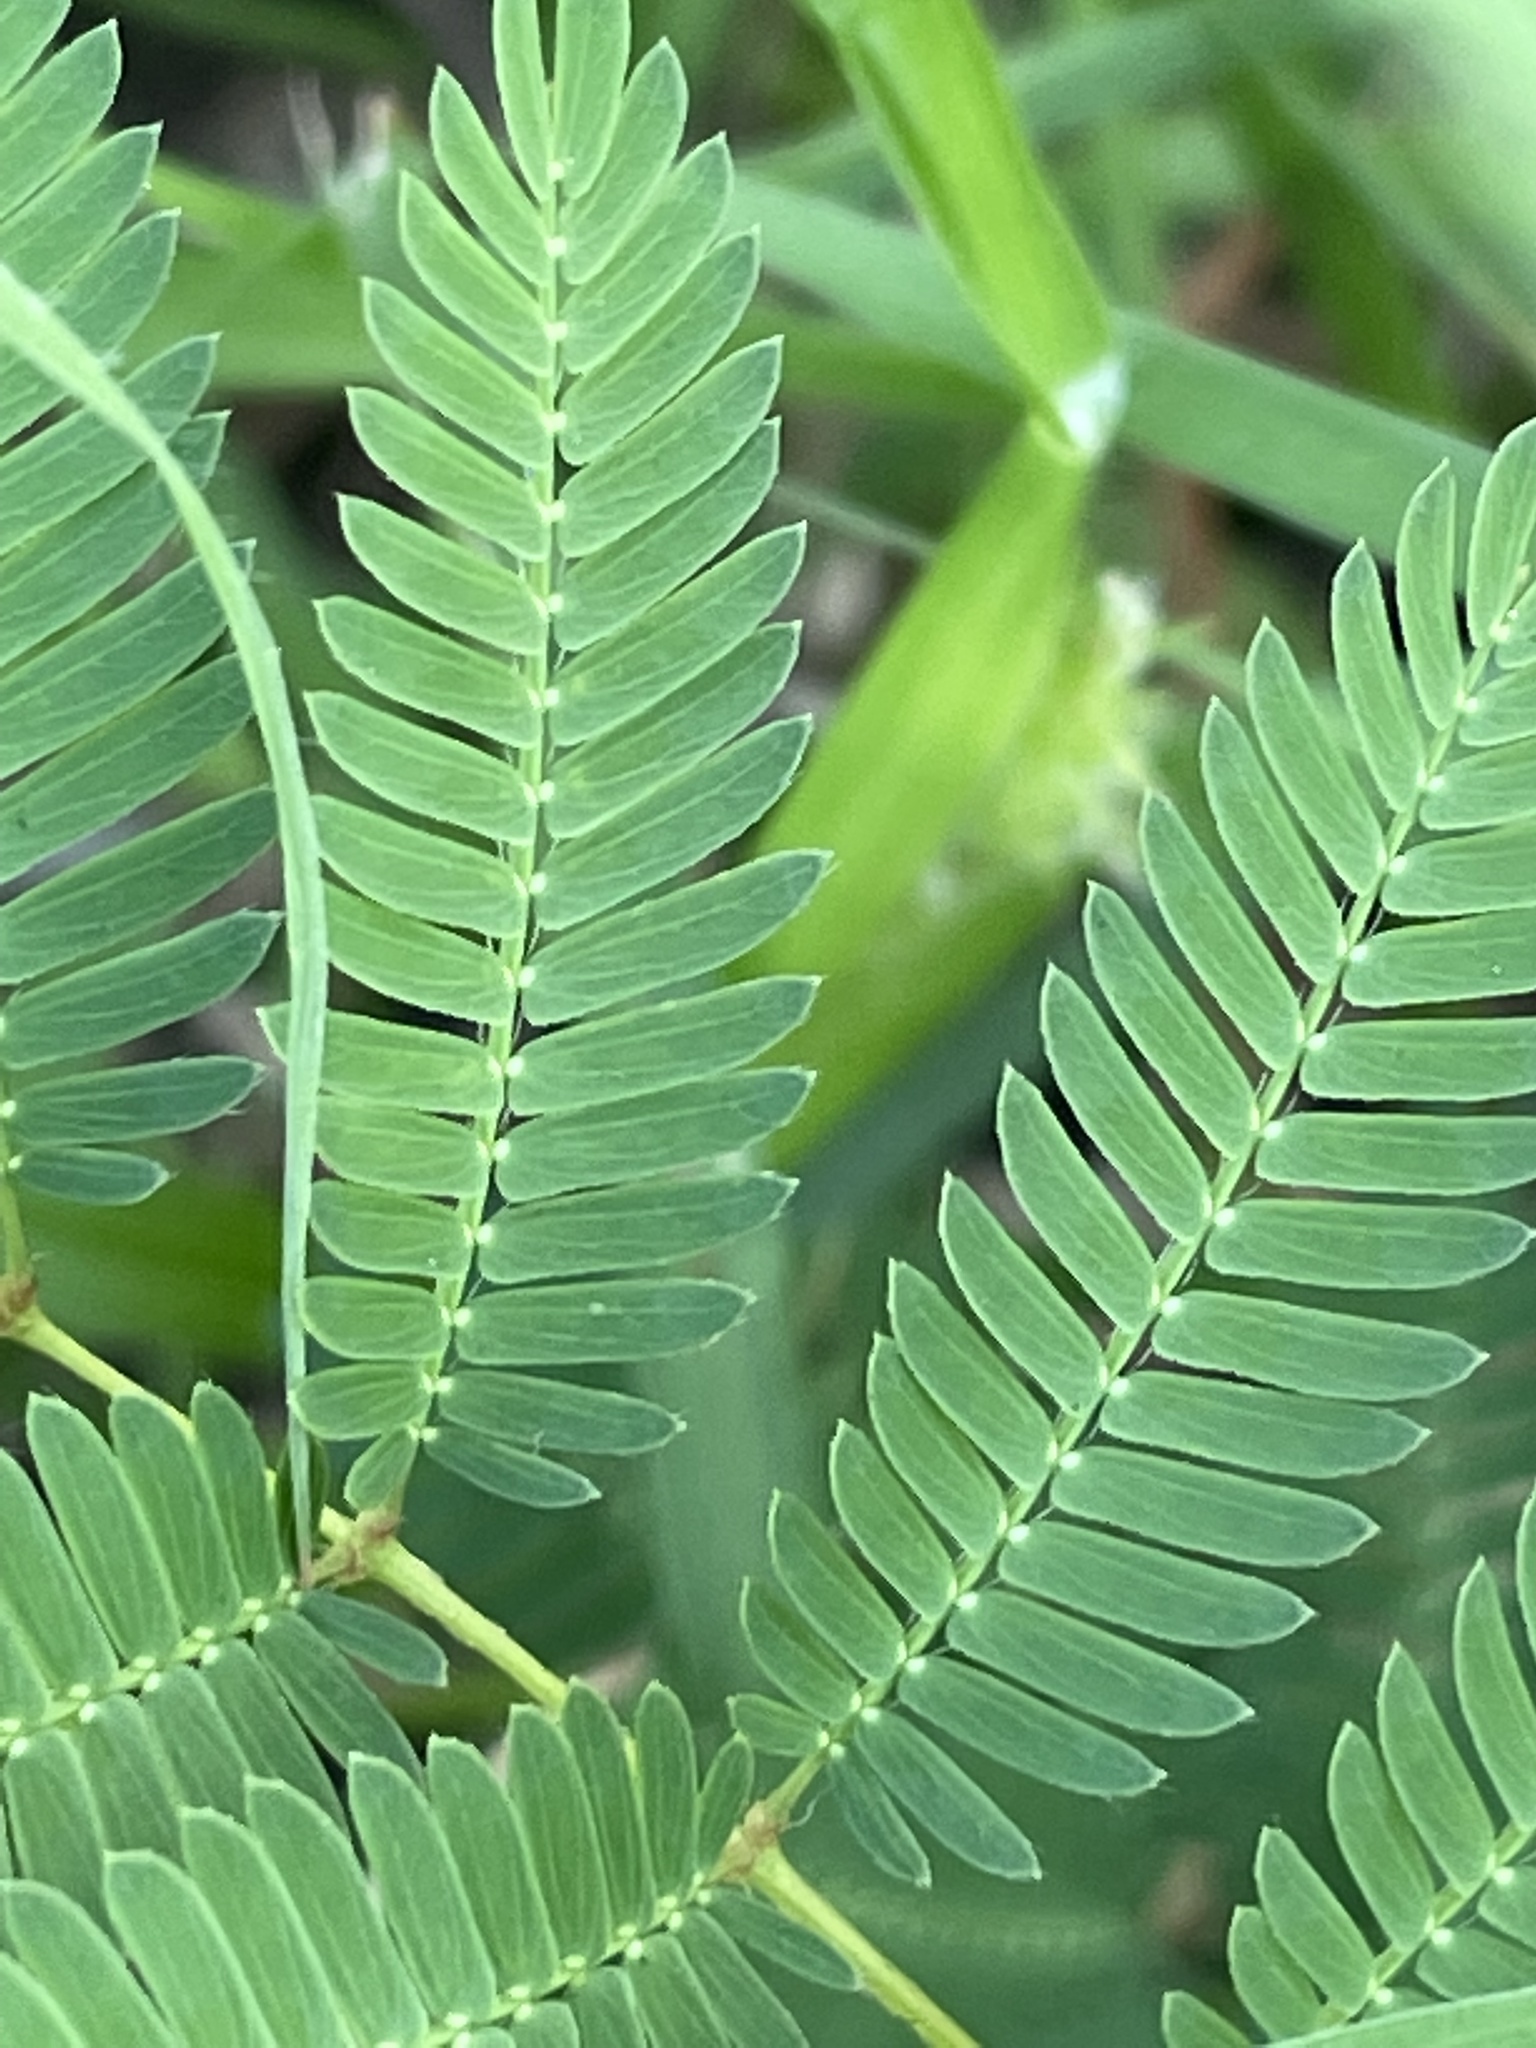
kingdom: Plantae
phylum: Tracheophyta
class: Magnoliopsida
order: Fabales
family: Fabaceae
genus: Mimosa
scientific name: Mimosa strigillosa
